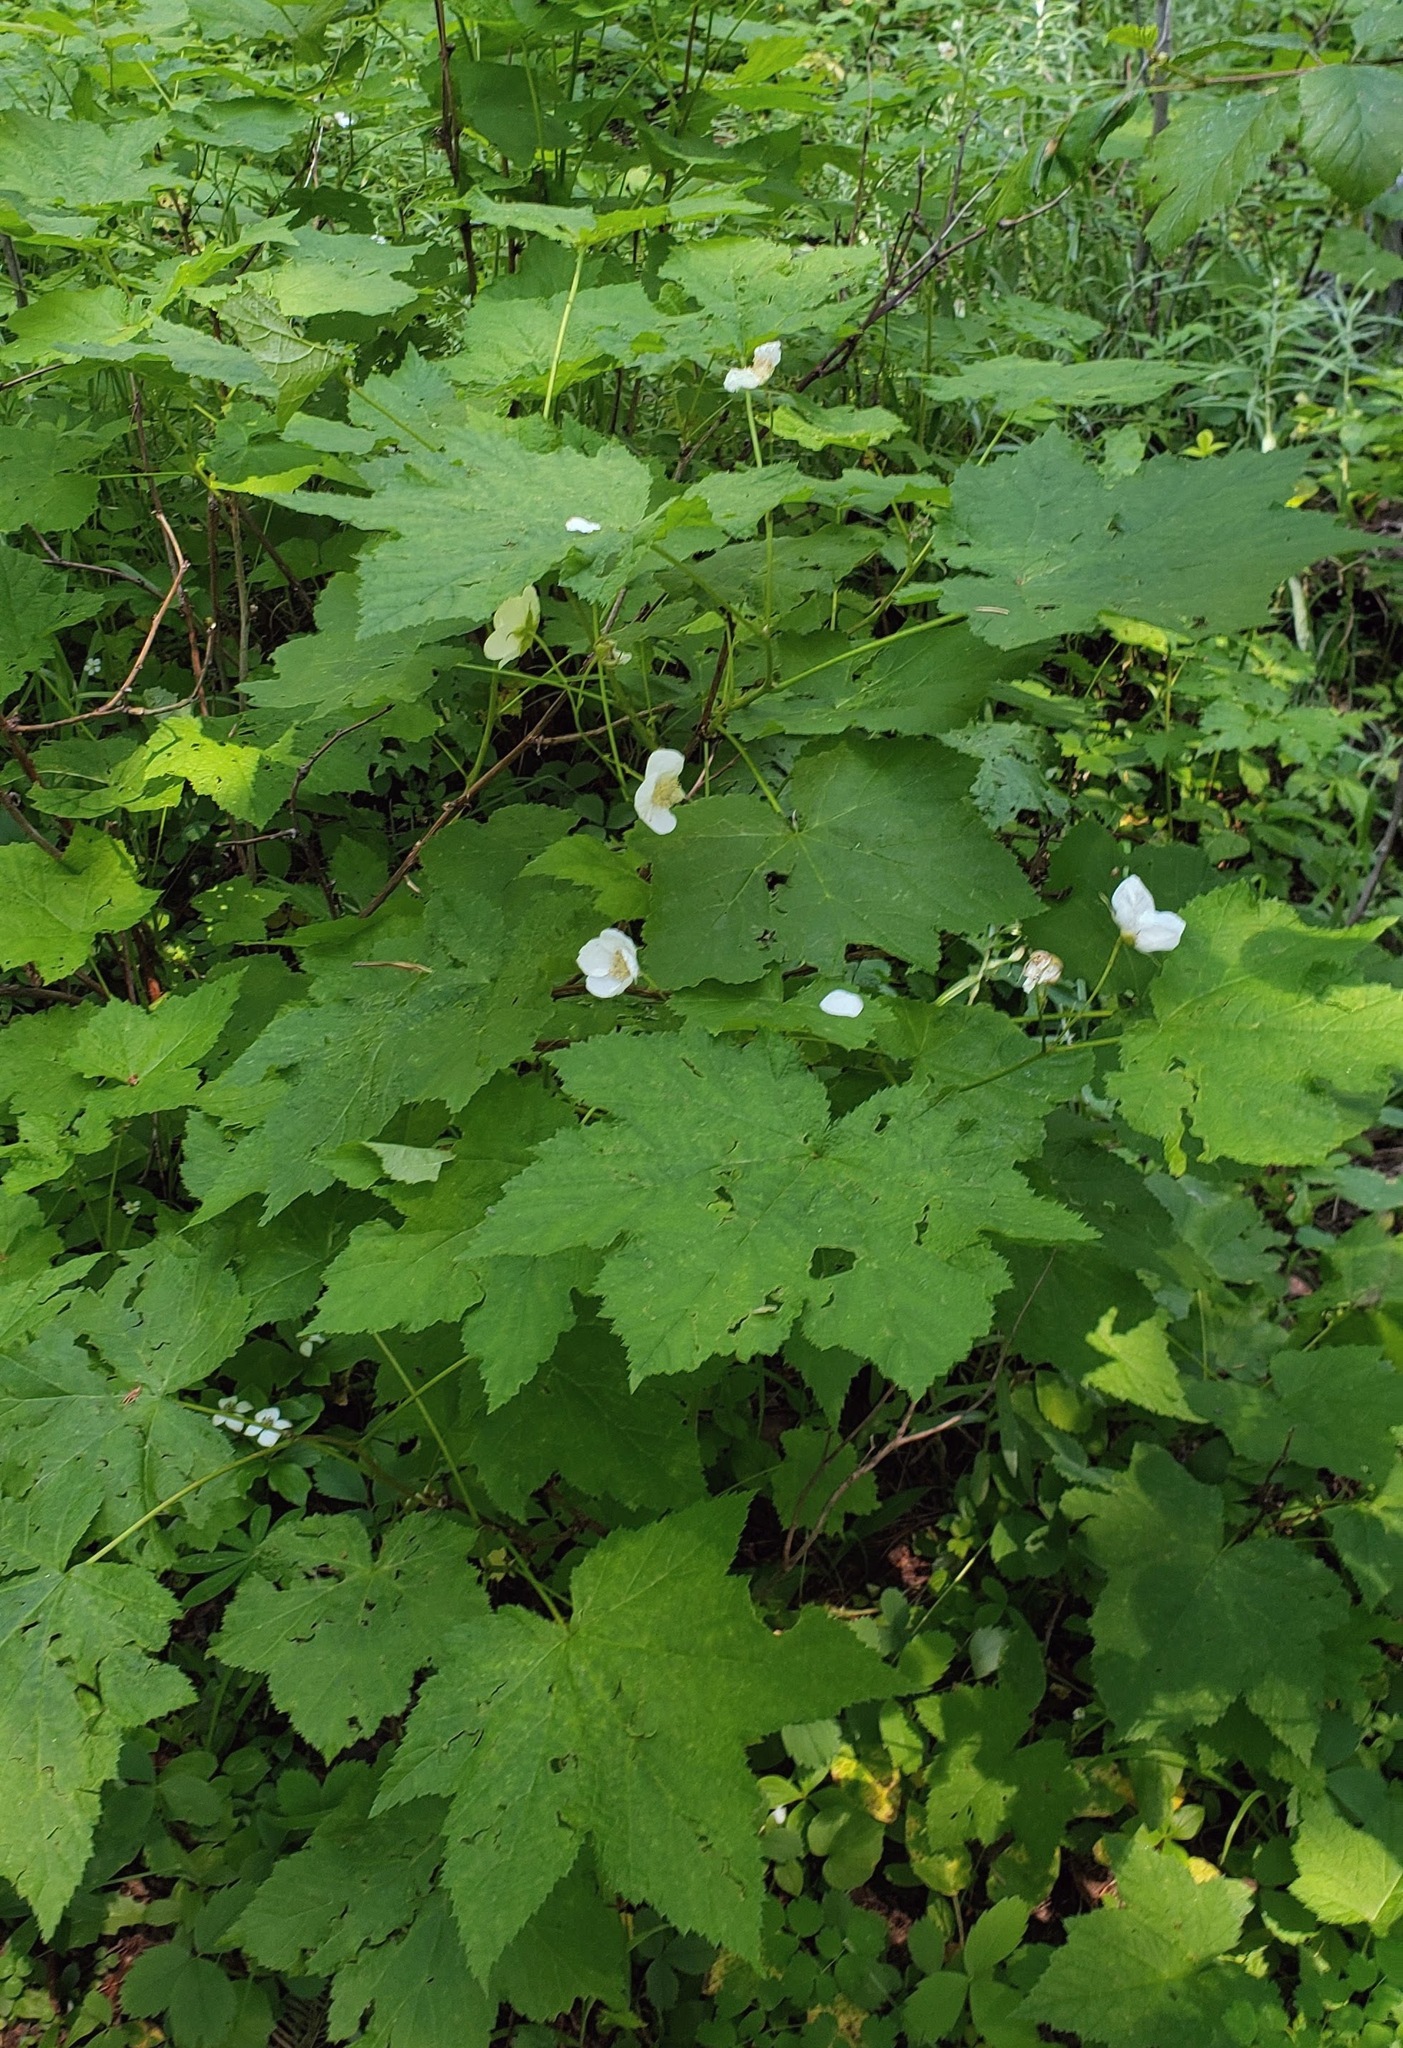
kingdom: Plantae
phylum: Tracheophyta
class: Magnoliopsida
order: Rosales
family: Rosaceae
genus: Rubus
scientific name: Rubus parviflorus
